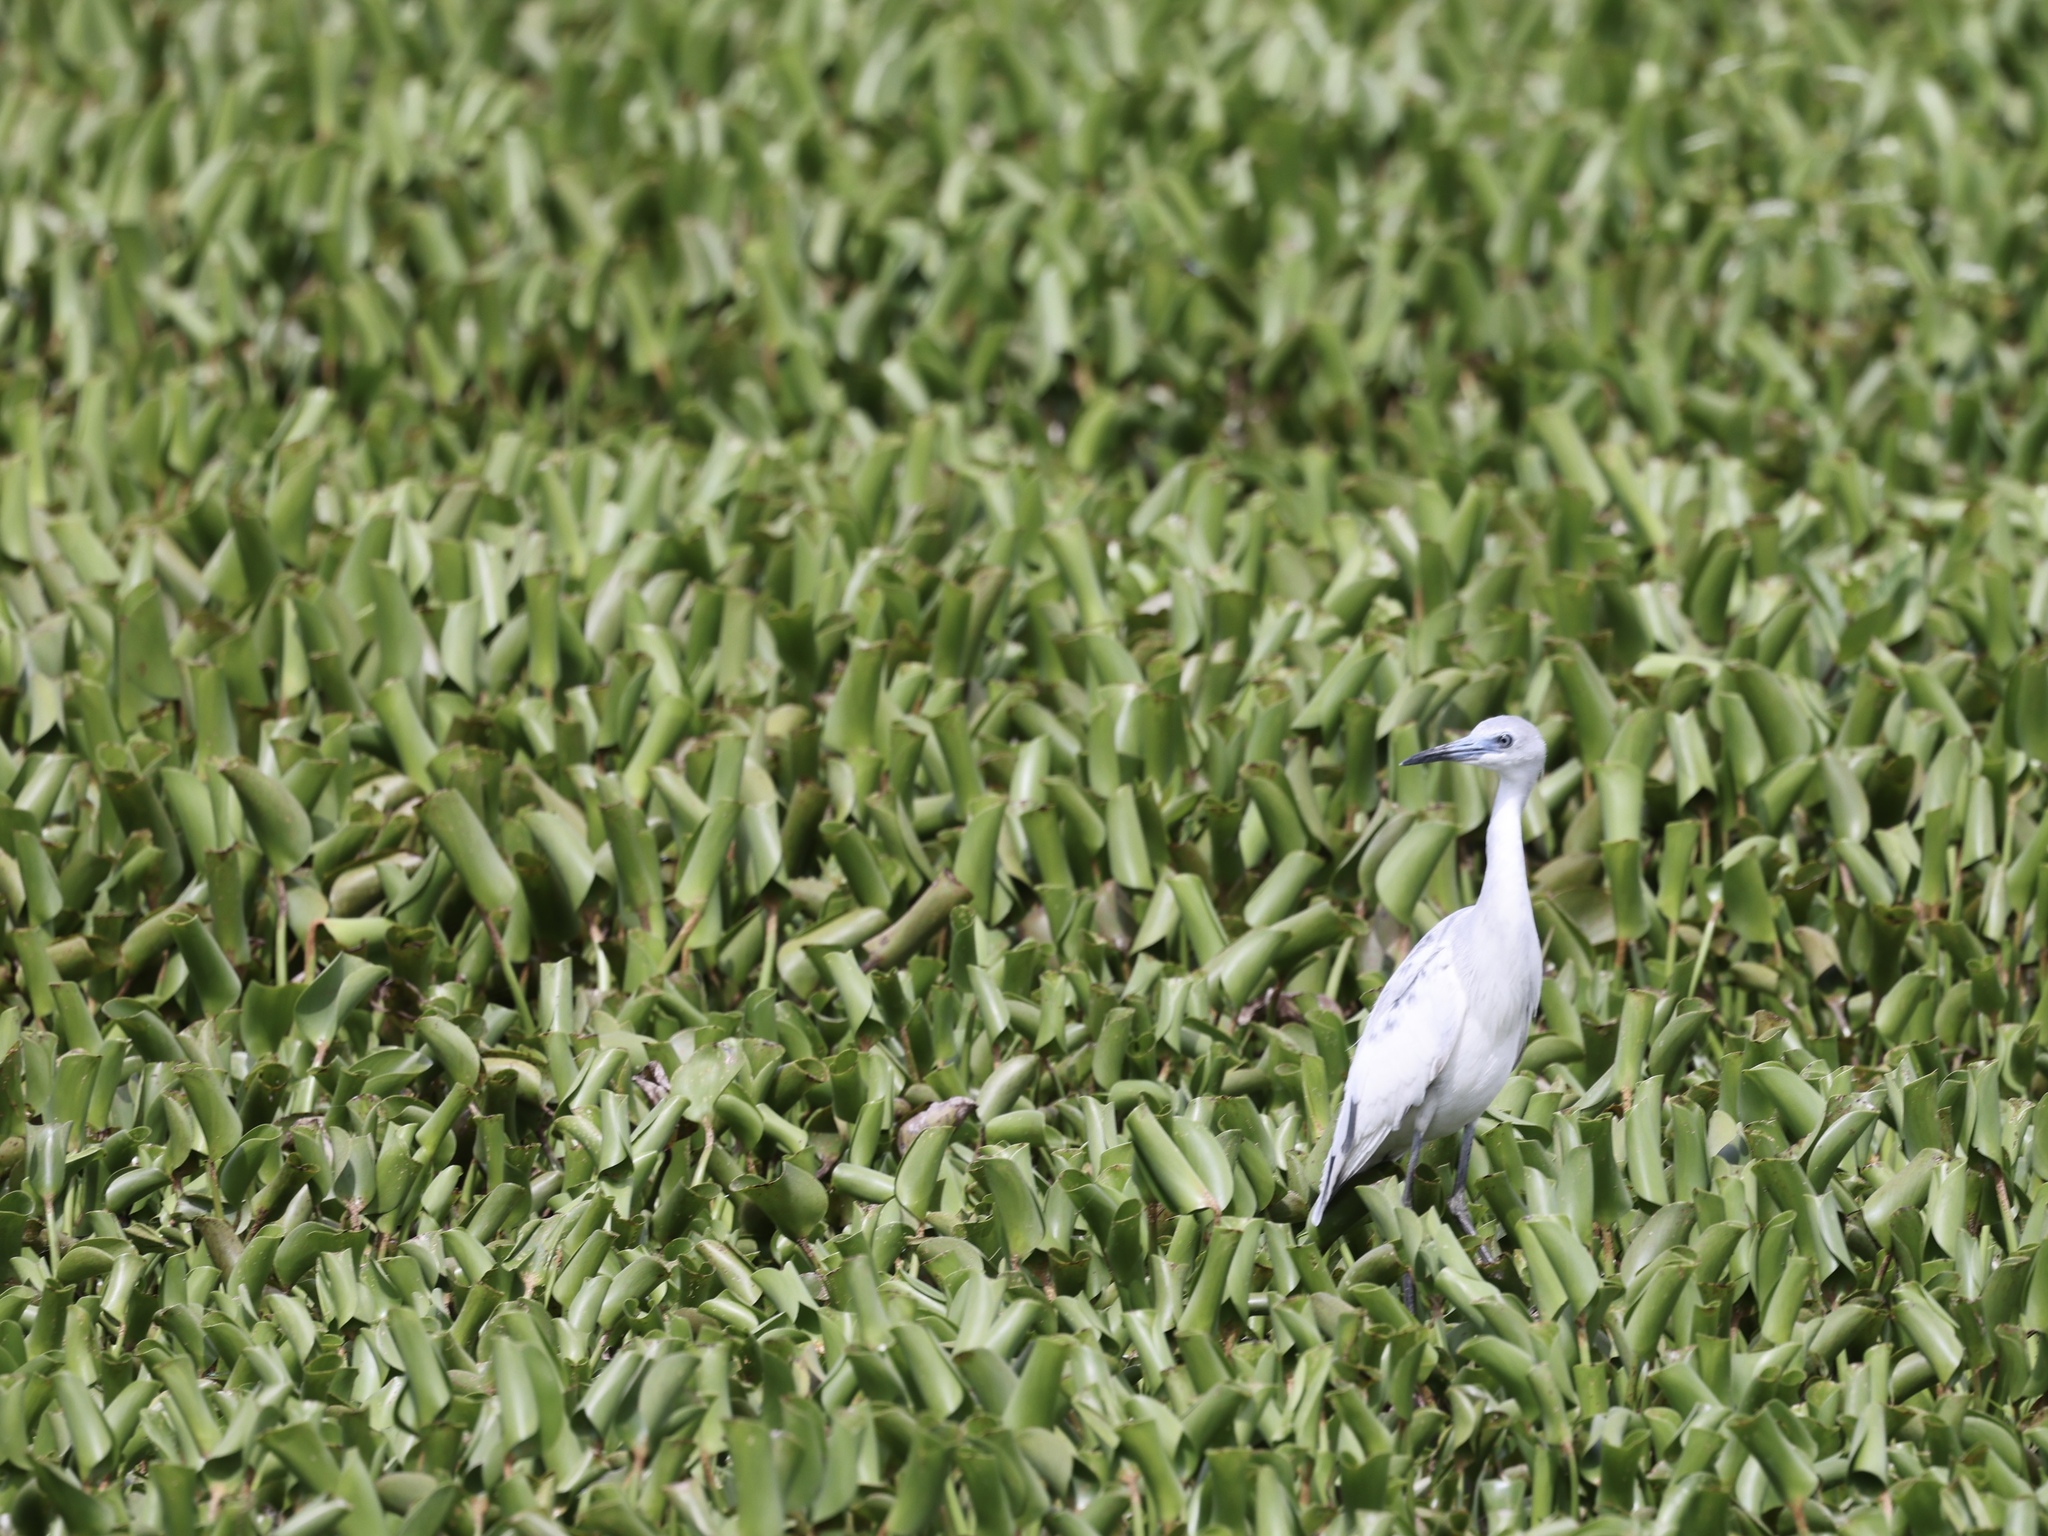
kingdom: Animalia
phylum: Chordata
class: Aves
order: Pelecaniformes
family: Ardeidae
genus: Egretta
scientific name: Egretta caerulea
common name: Little blue heron
